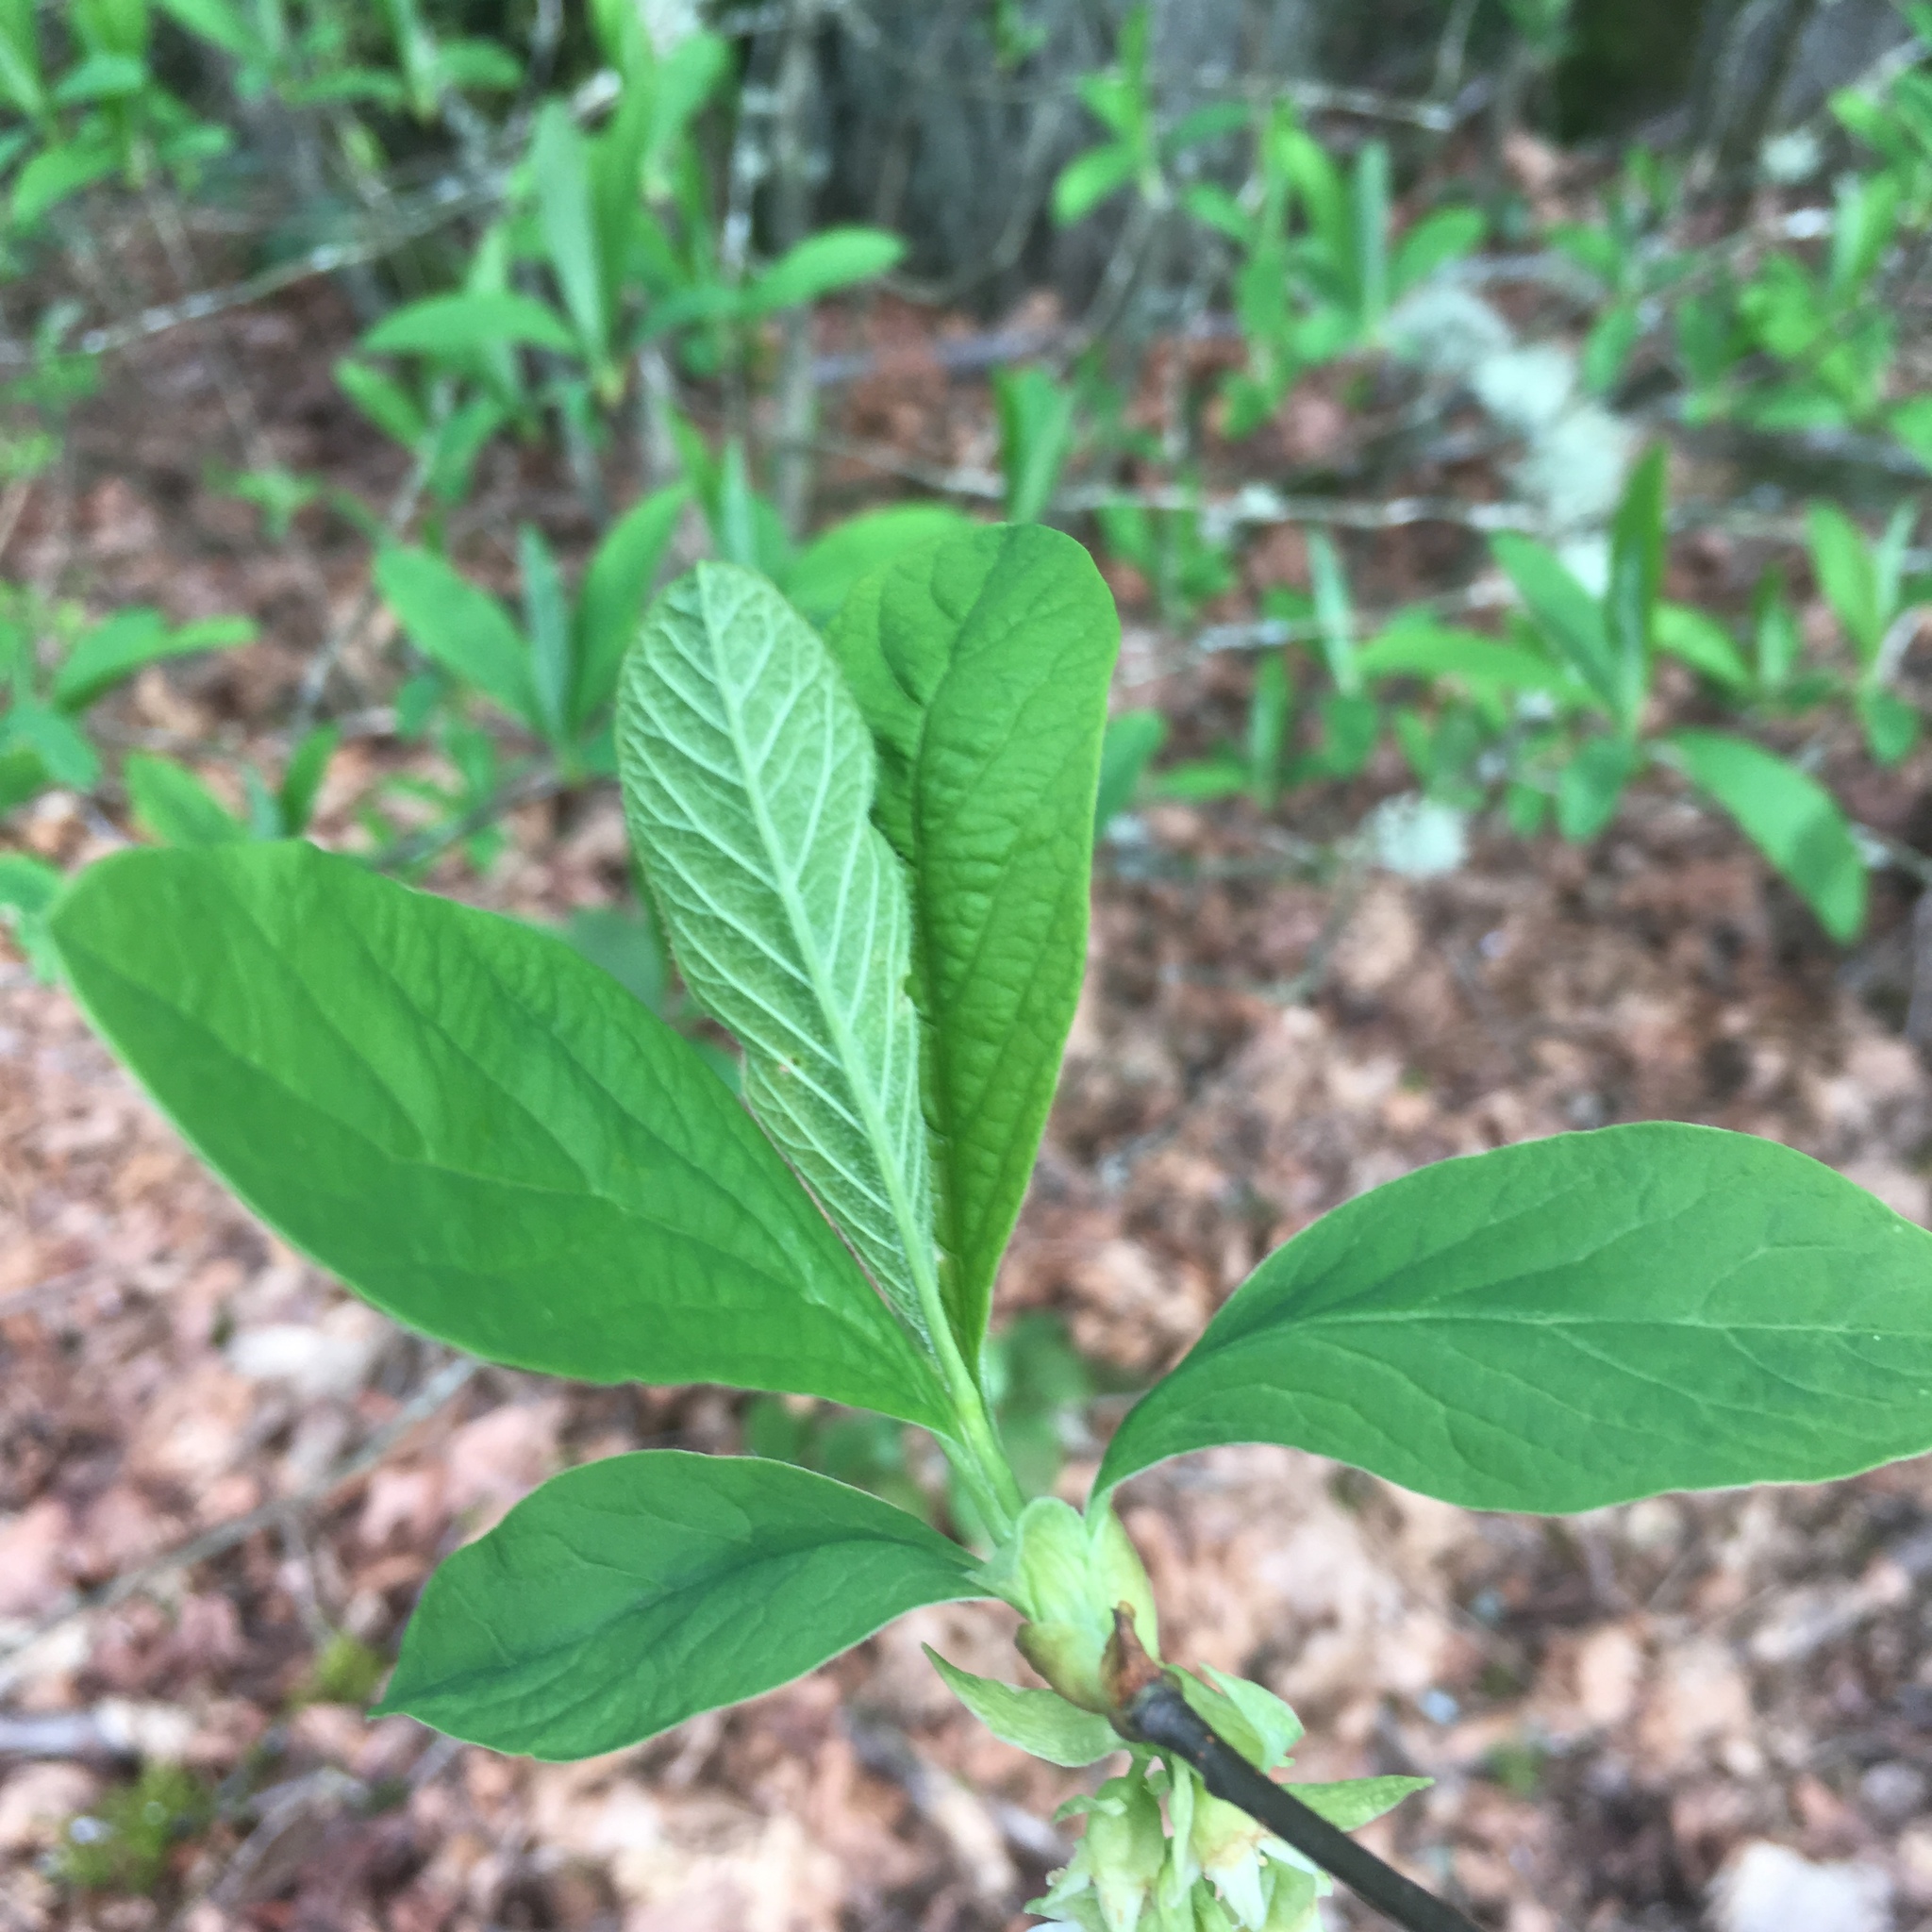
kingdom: Plantae
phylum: Tracheophyta
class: Magnoliopsida
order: Rosales
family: Rosaceae
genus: Oemleria
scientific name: Oemleria cerasiformis
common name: Osoberry
